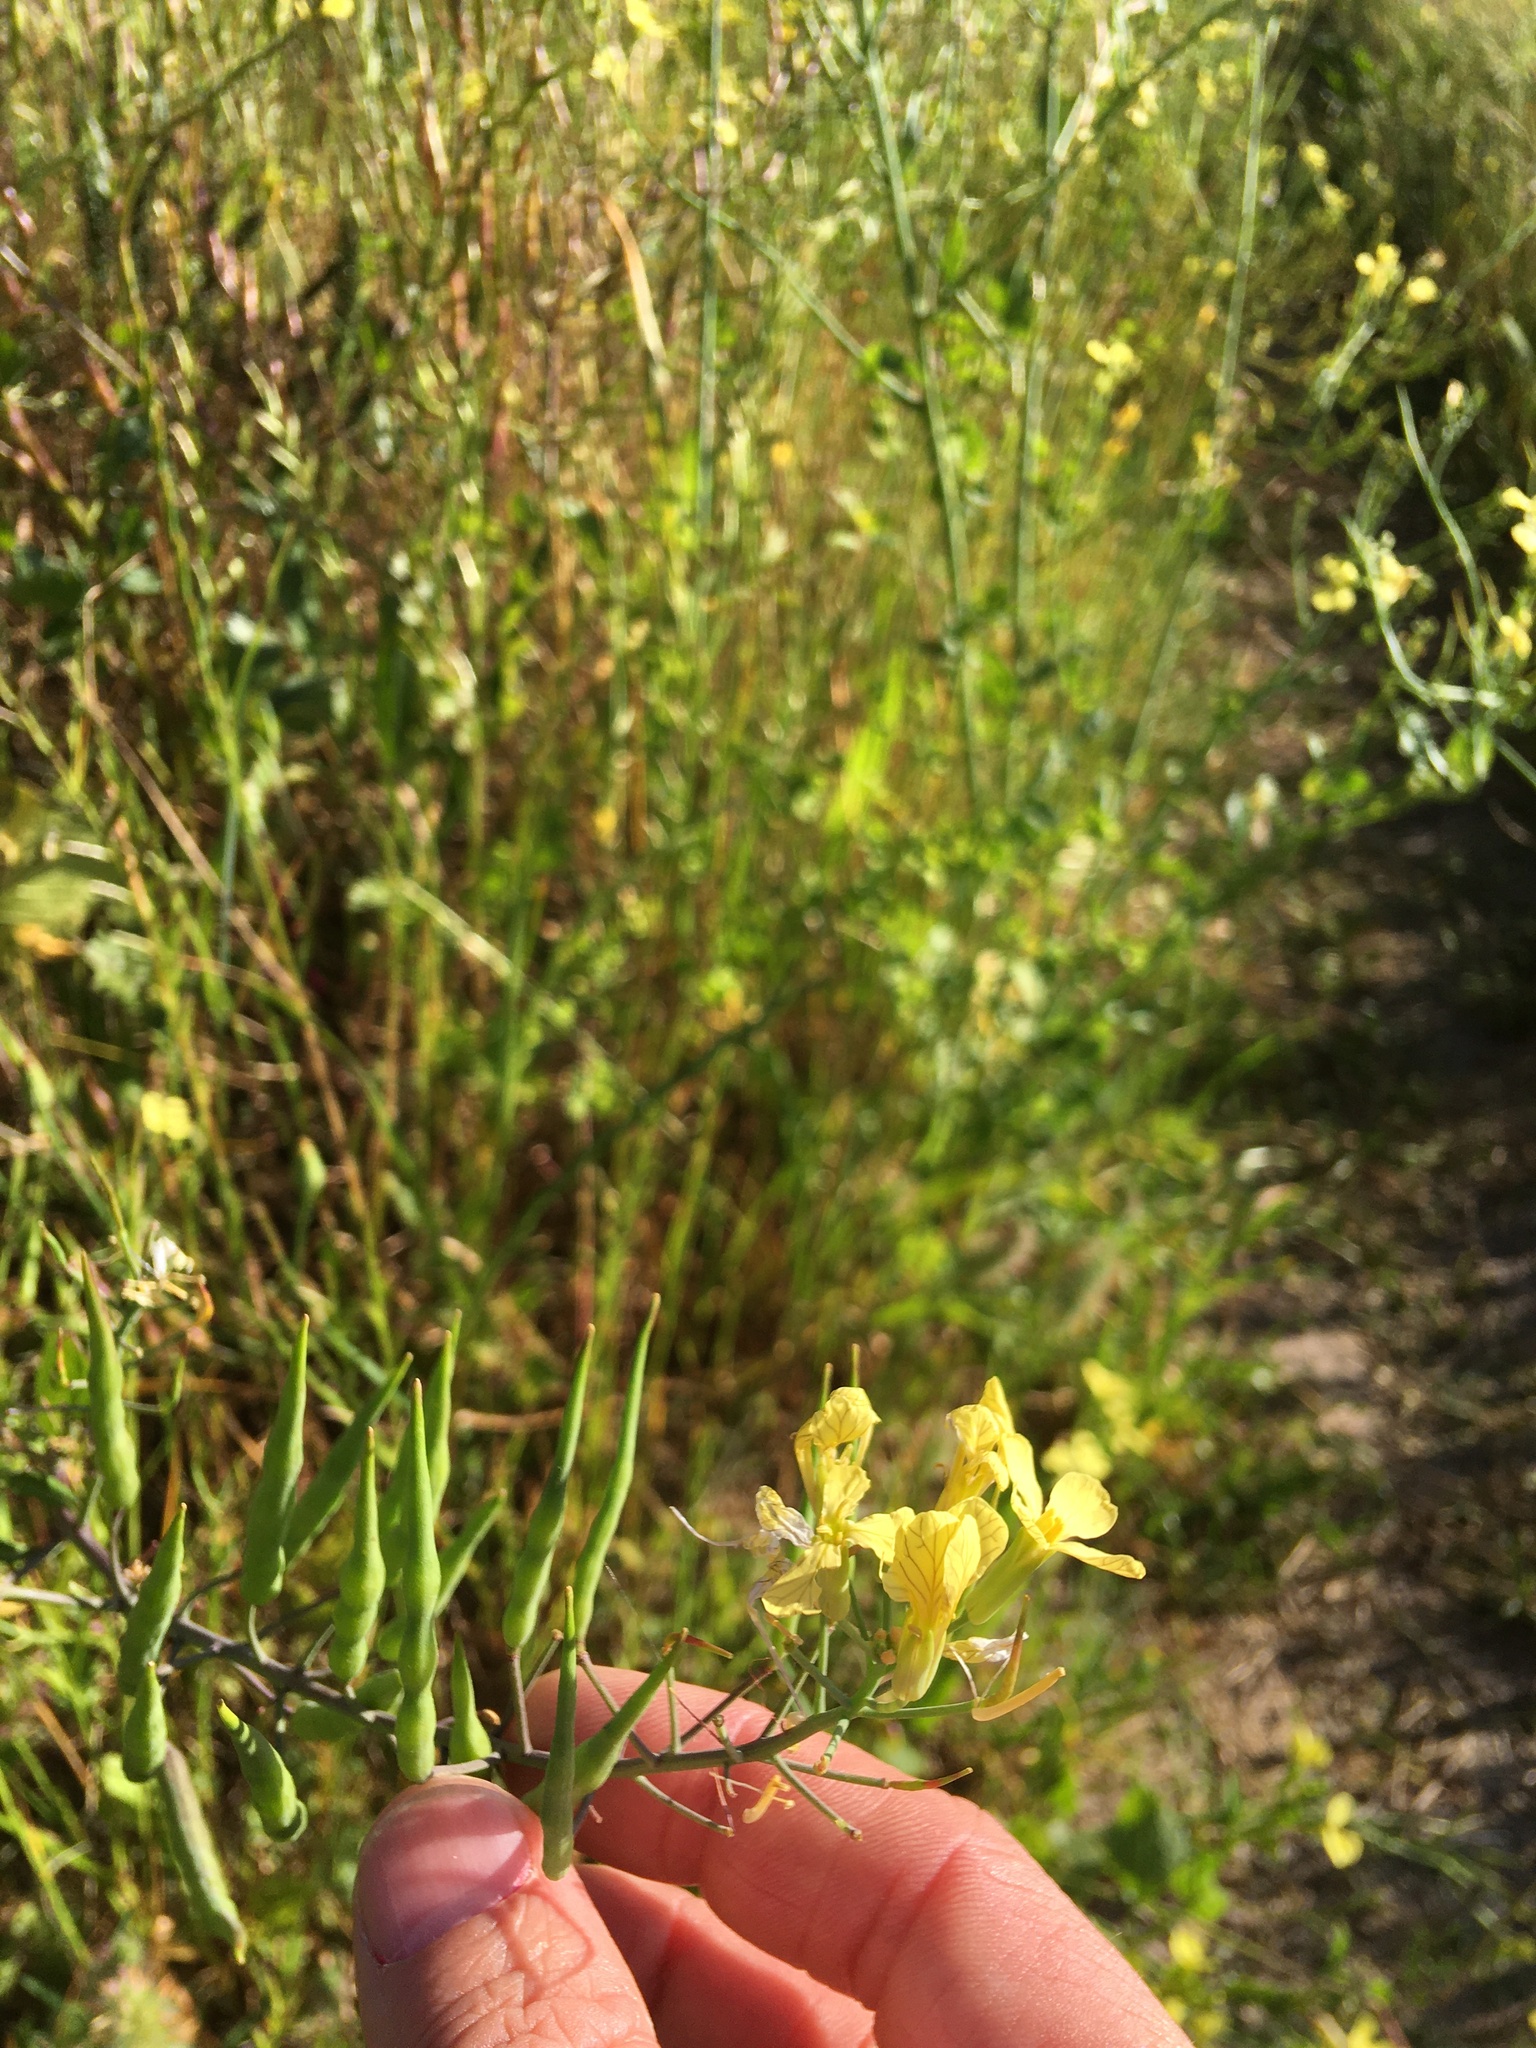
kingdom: Plantae
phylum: Tracheophyta
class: Magnoliopsida
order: Brassicales
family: Brassicaceae
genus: Raphanus
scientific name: Raphanus raphanistrum
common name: Wild radish
